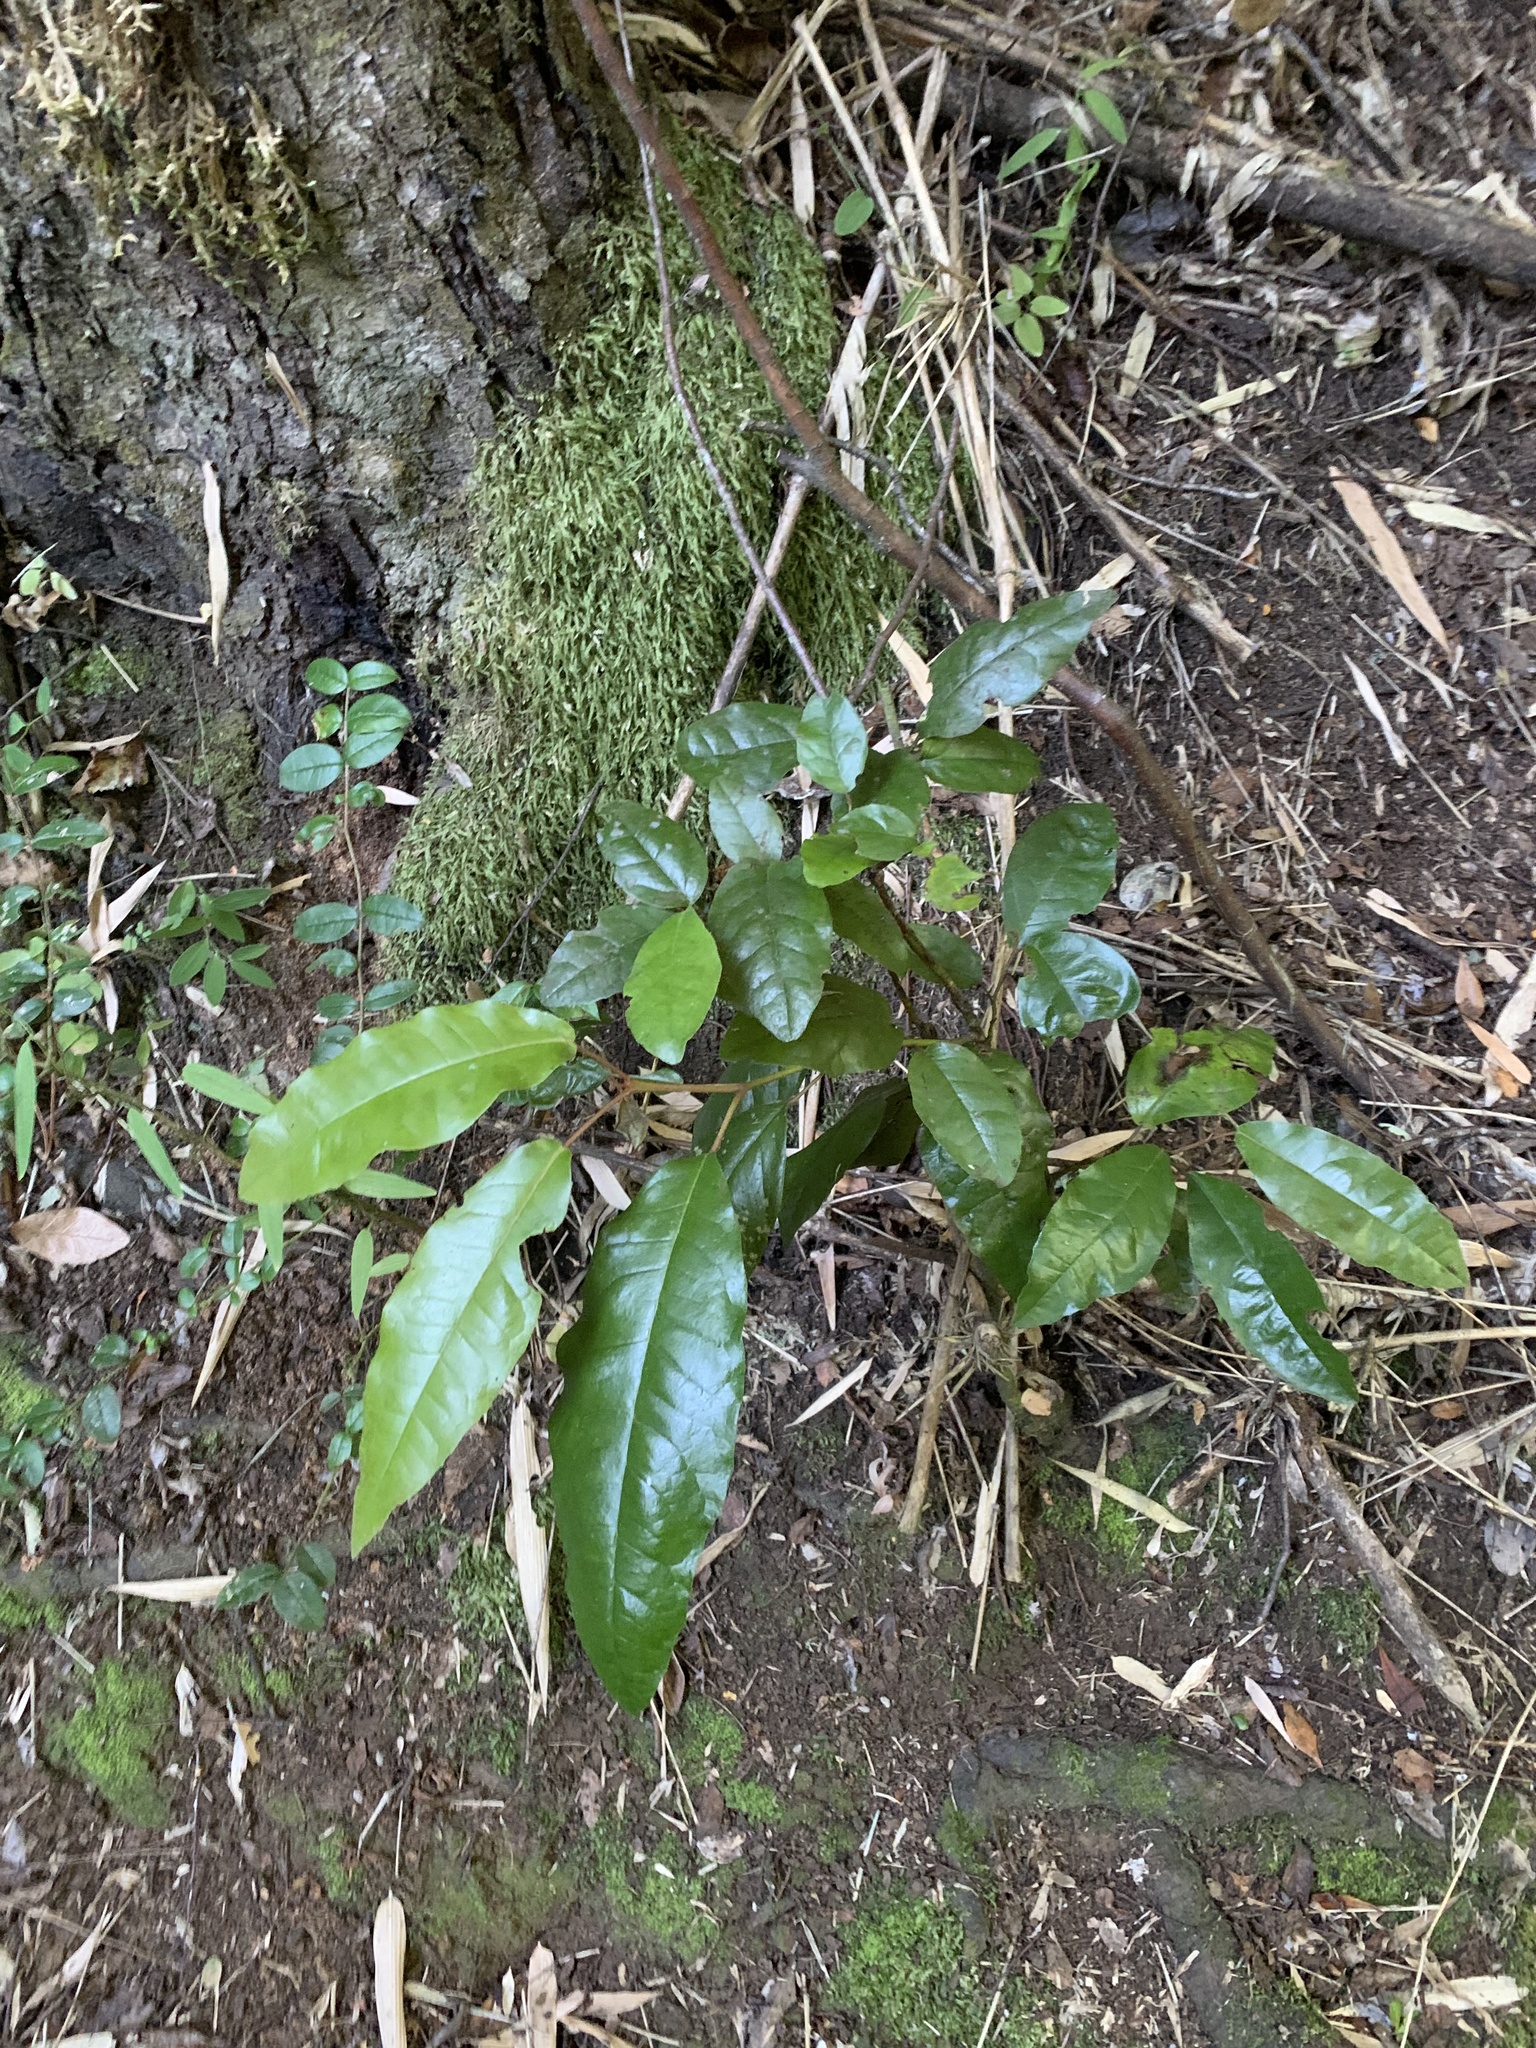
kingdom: Plantae
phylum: Tracheophyta
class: Magnoliopsida
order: Berberidopsidales
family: Aextoxicaceae
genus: Aextoxicon
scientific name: Aextoxicon punctatum
